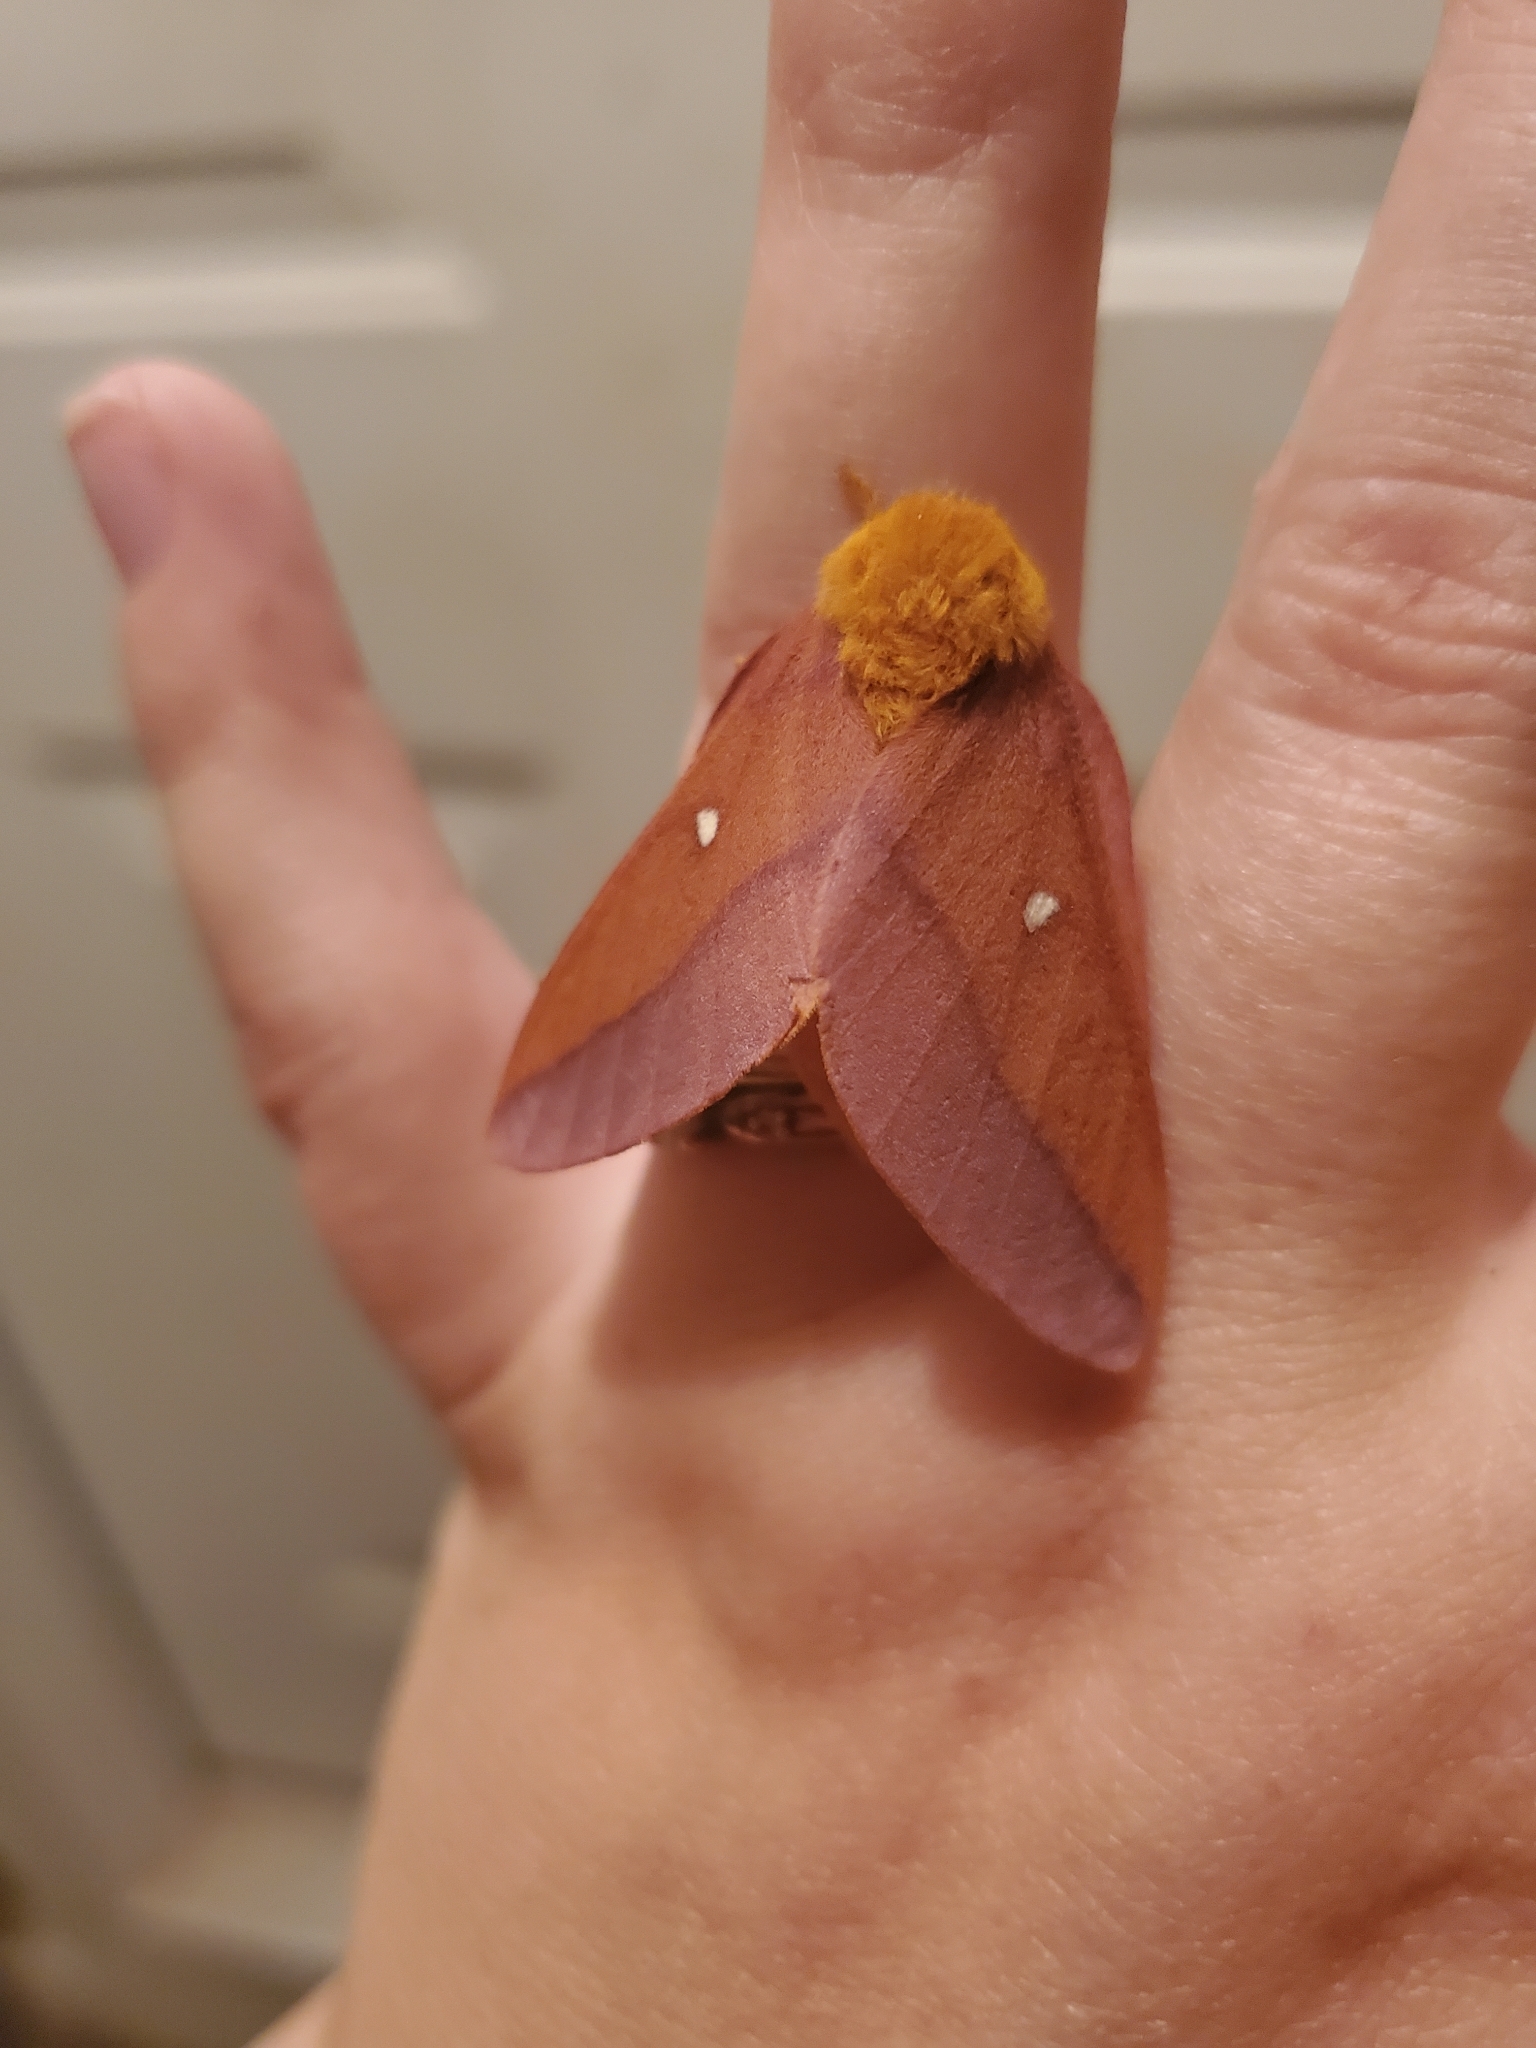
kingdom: Animalia
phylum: Arthropoda
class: Insecta
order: Lepidoptera
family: Saturniidae
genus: Anisota
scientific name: Anisota virginiensis
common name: Pink striped oakworm moth
